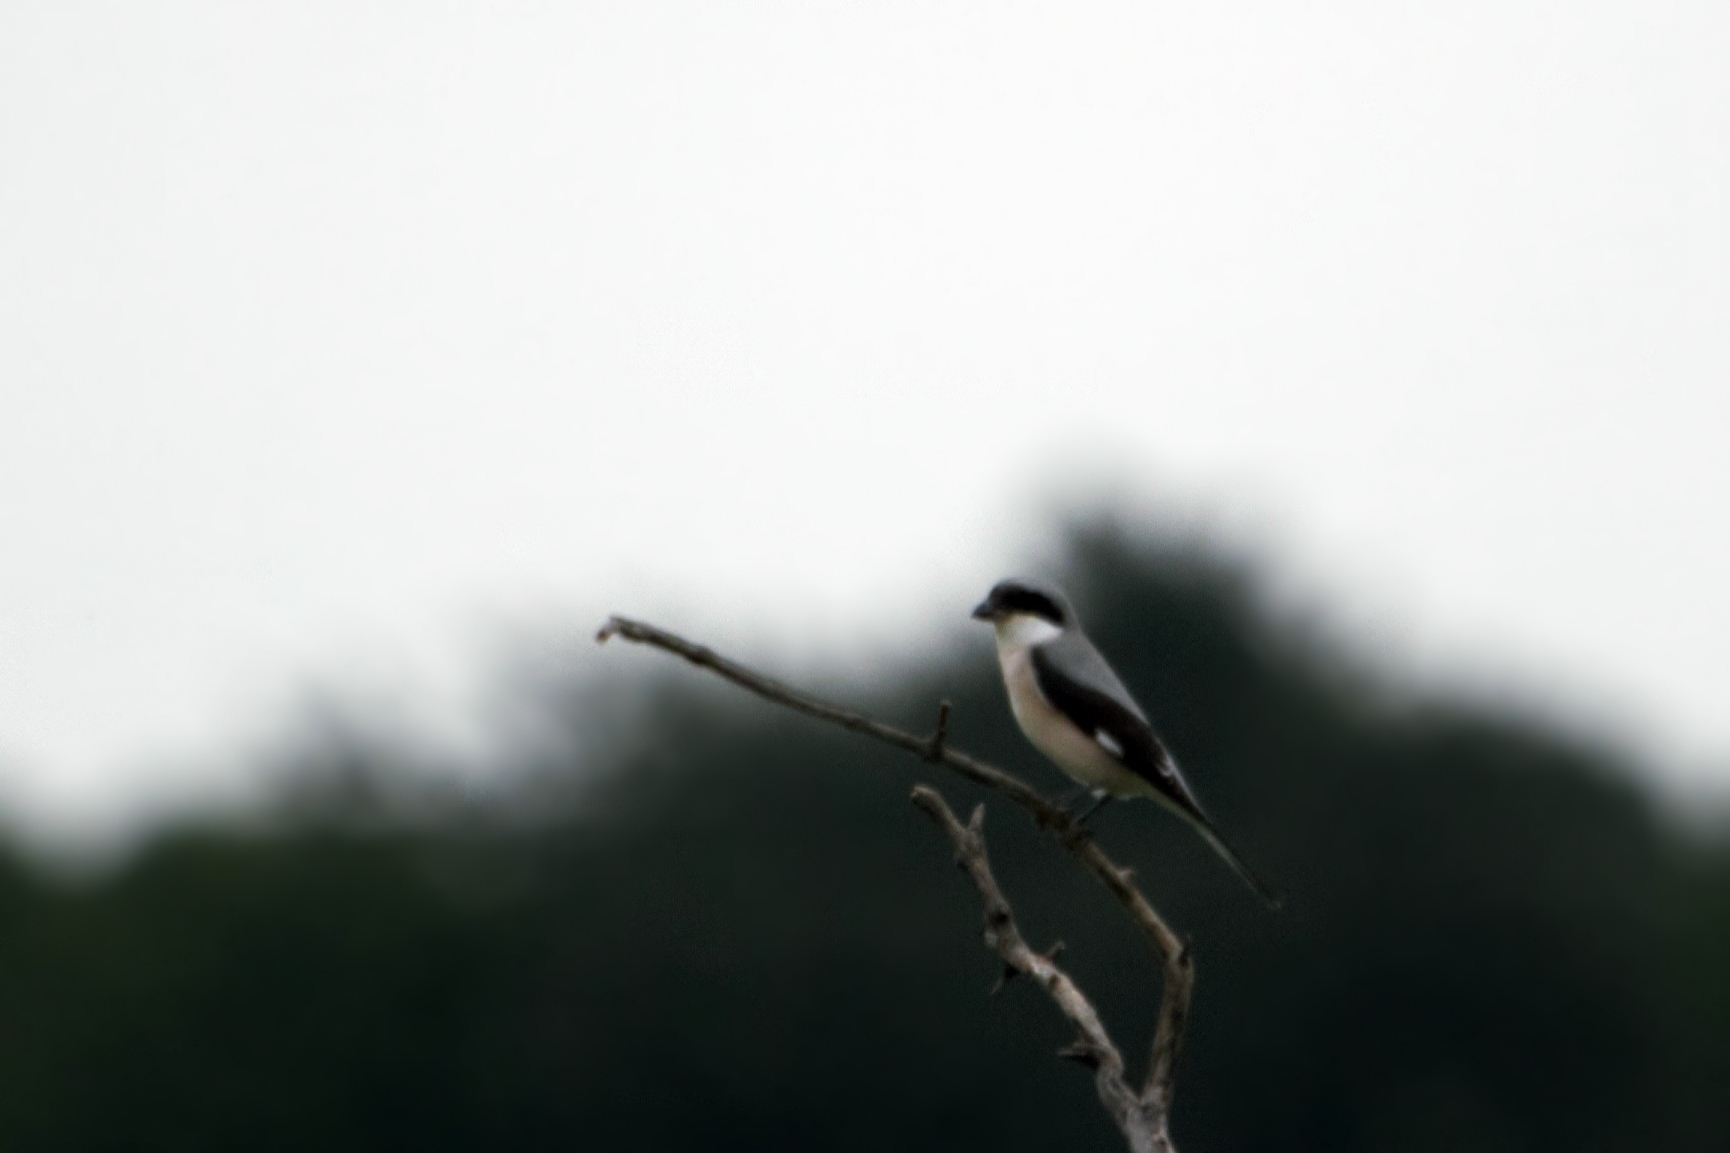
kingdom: Animalia
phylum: Chordata
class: Aves
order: Passeriformes
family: Laniidae
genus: Lanius
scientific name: Lanius minor
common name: Lesser grey shrike
